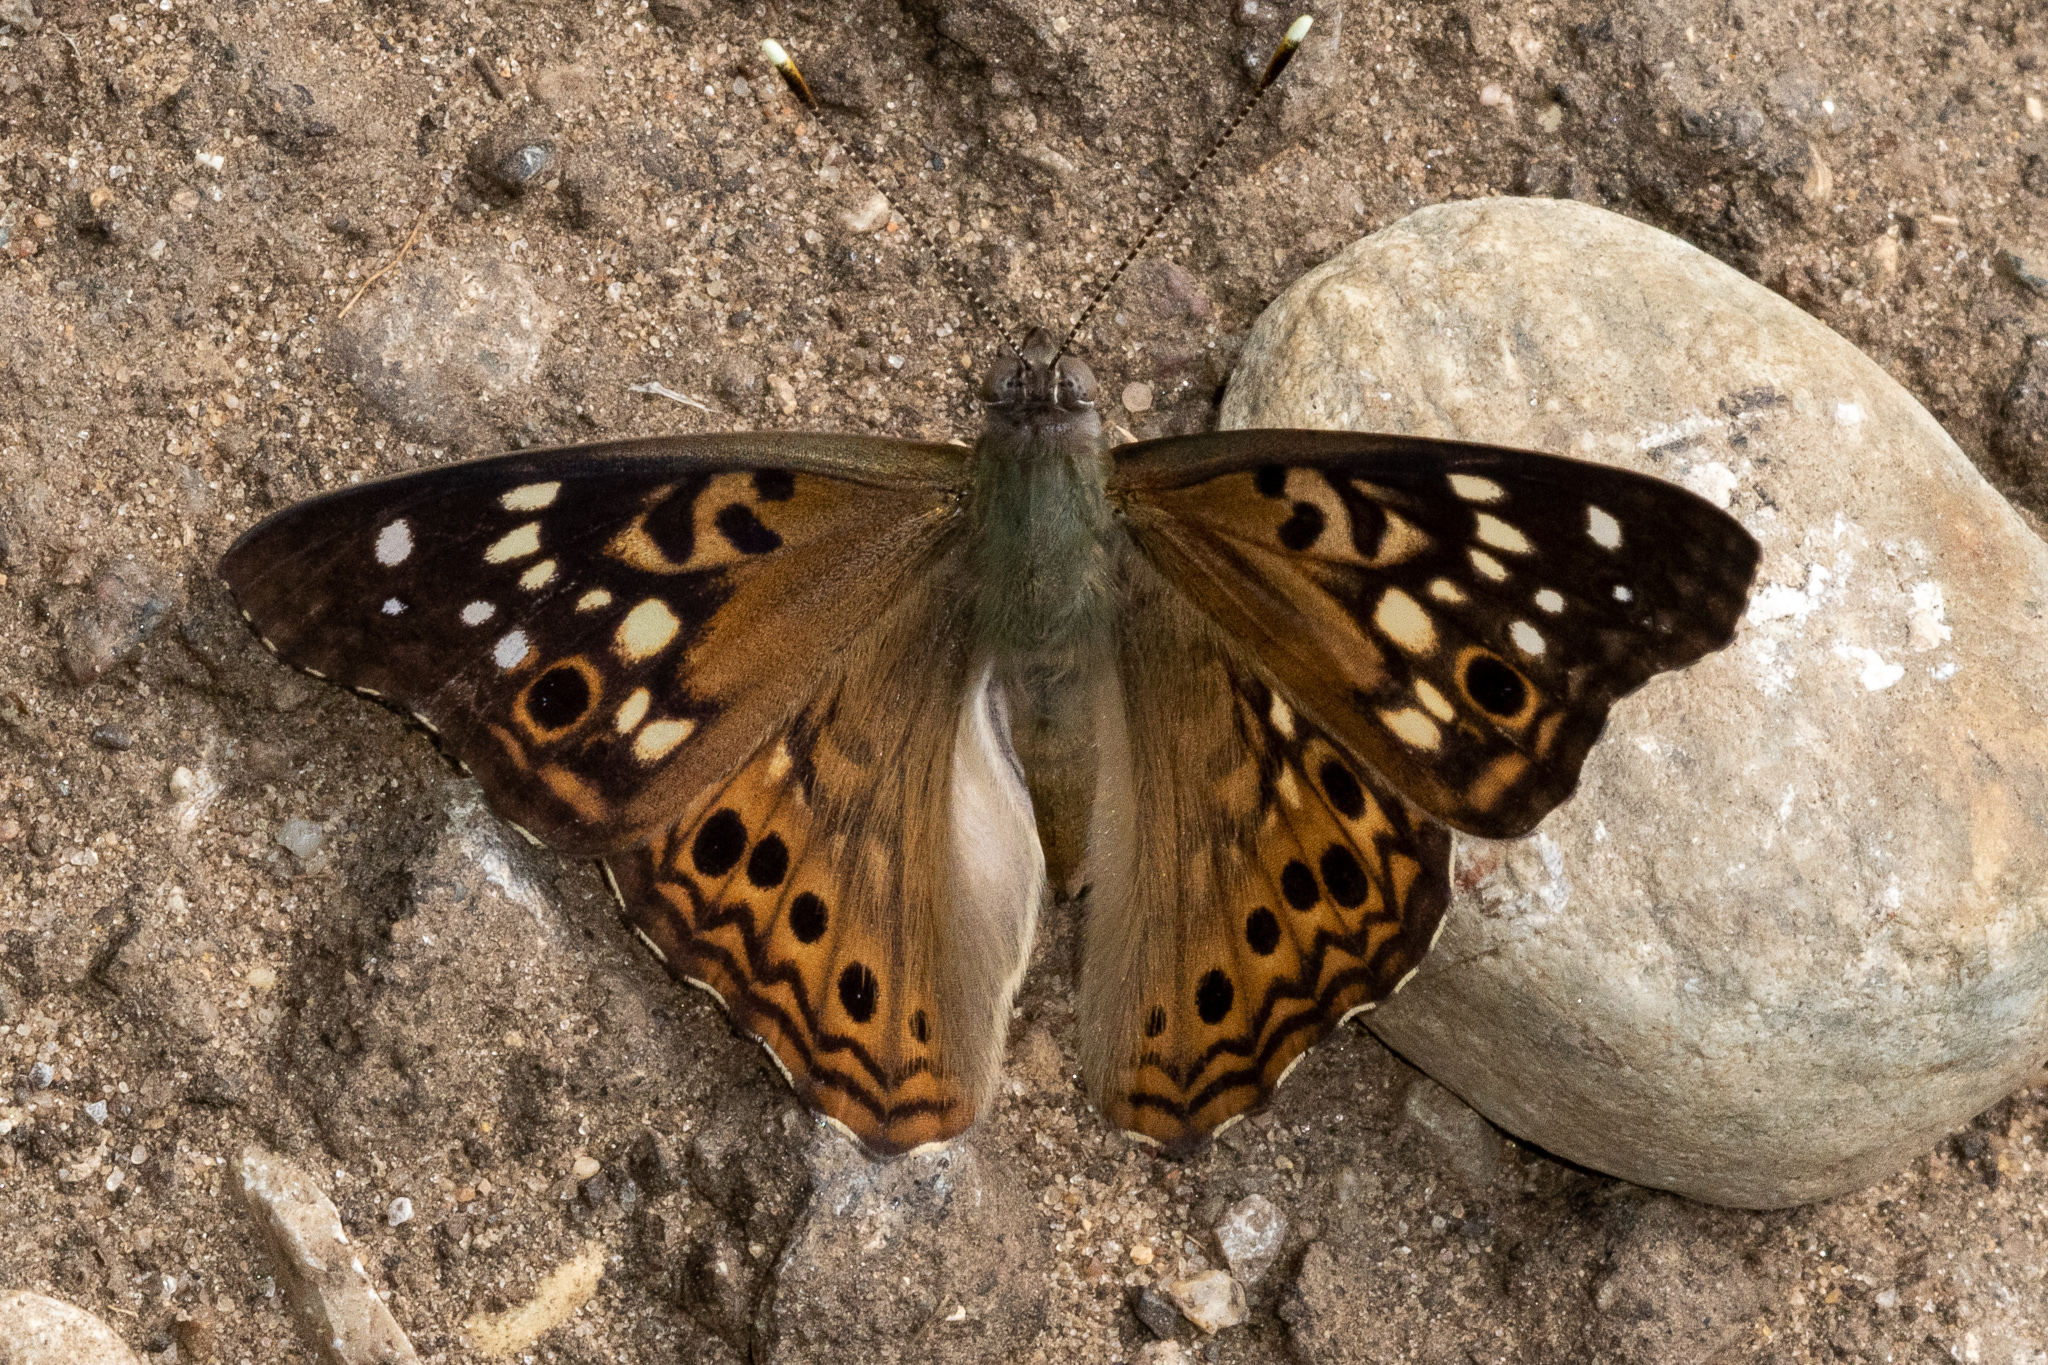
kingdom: Animalia
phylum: Arthropoda
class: Insecta
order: Lepidoptera
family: Nymphalidae
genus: Asterocampa
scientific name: Asterocampa celtis
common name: Hackberry emperor
